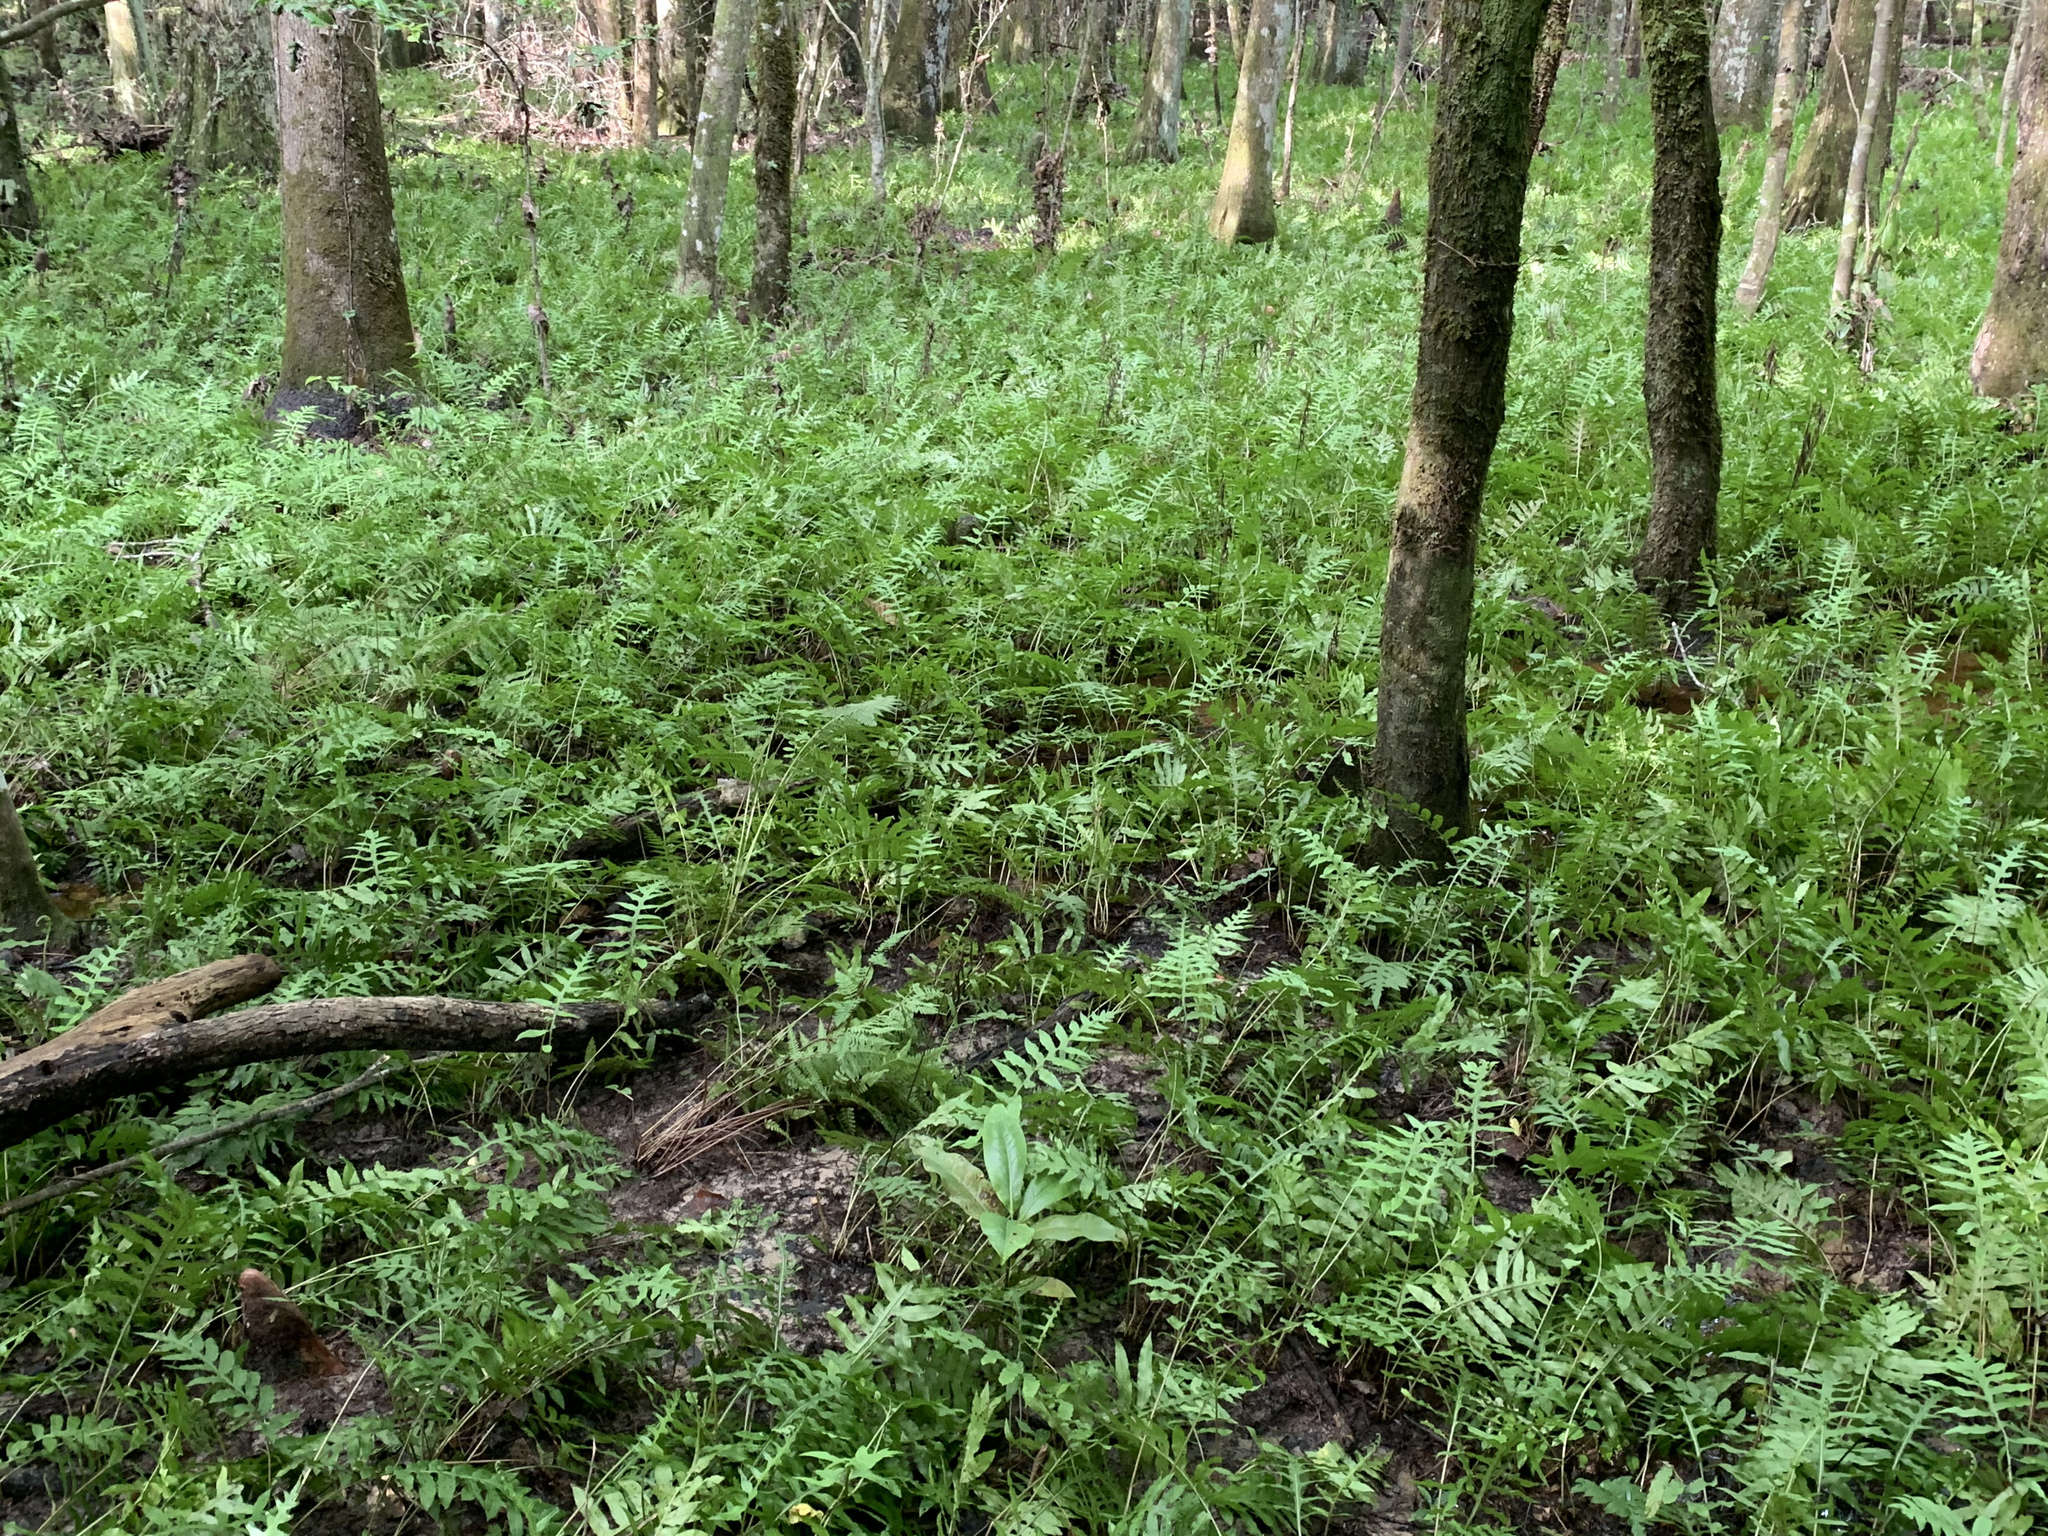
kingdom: Plantae
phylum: Tracheophyta
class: Polypodiopsida
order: Polypodiales
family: Blechnaceae
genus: Lorinseria
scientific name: Lorinseria areolata
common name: Dwarf chain fern
